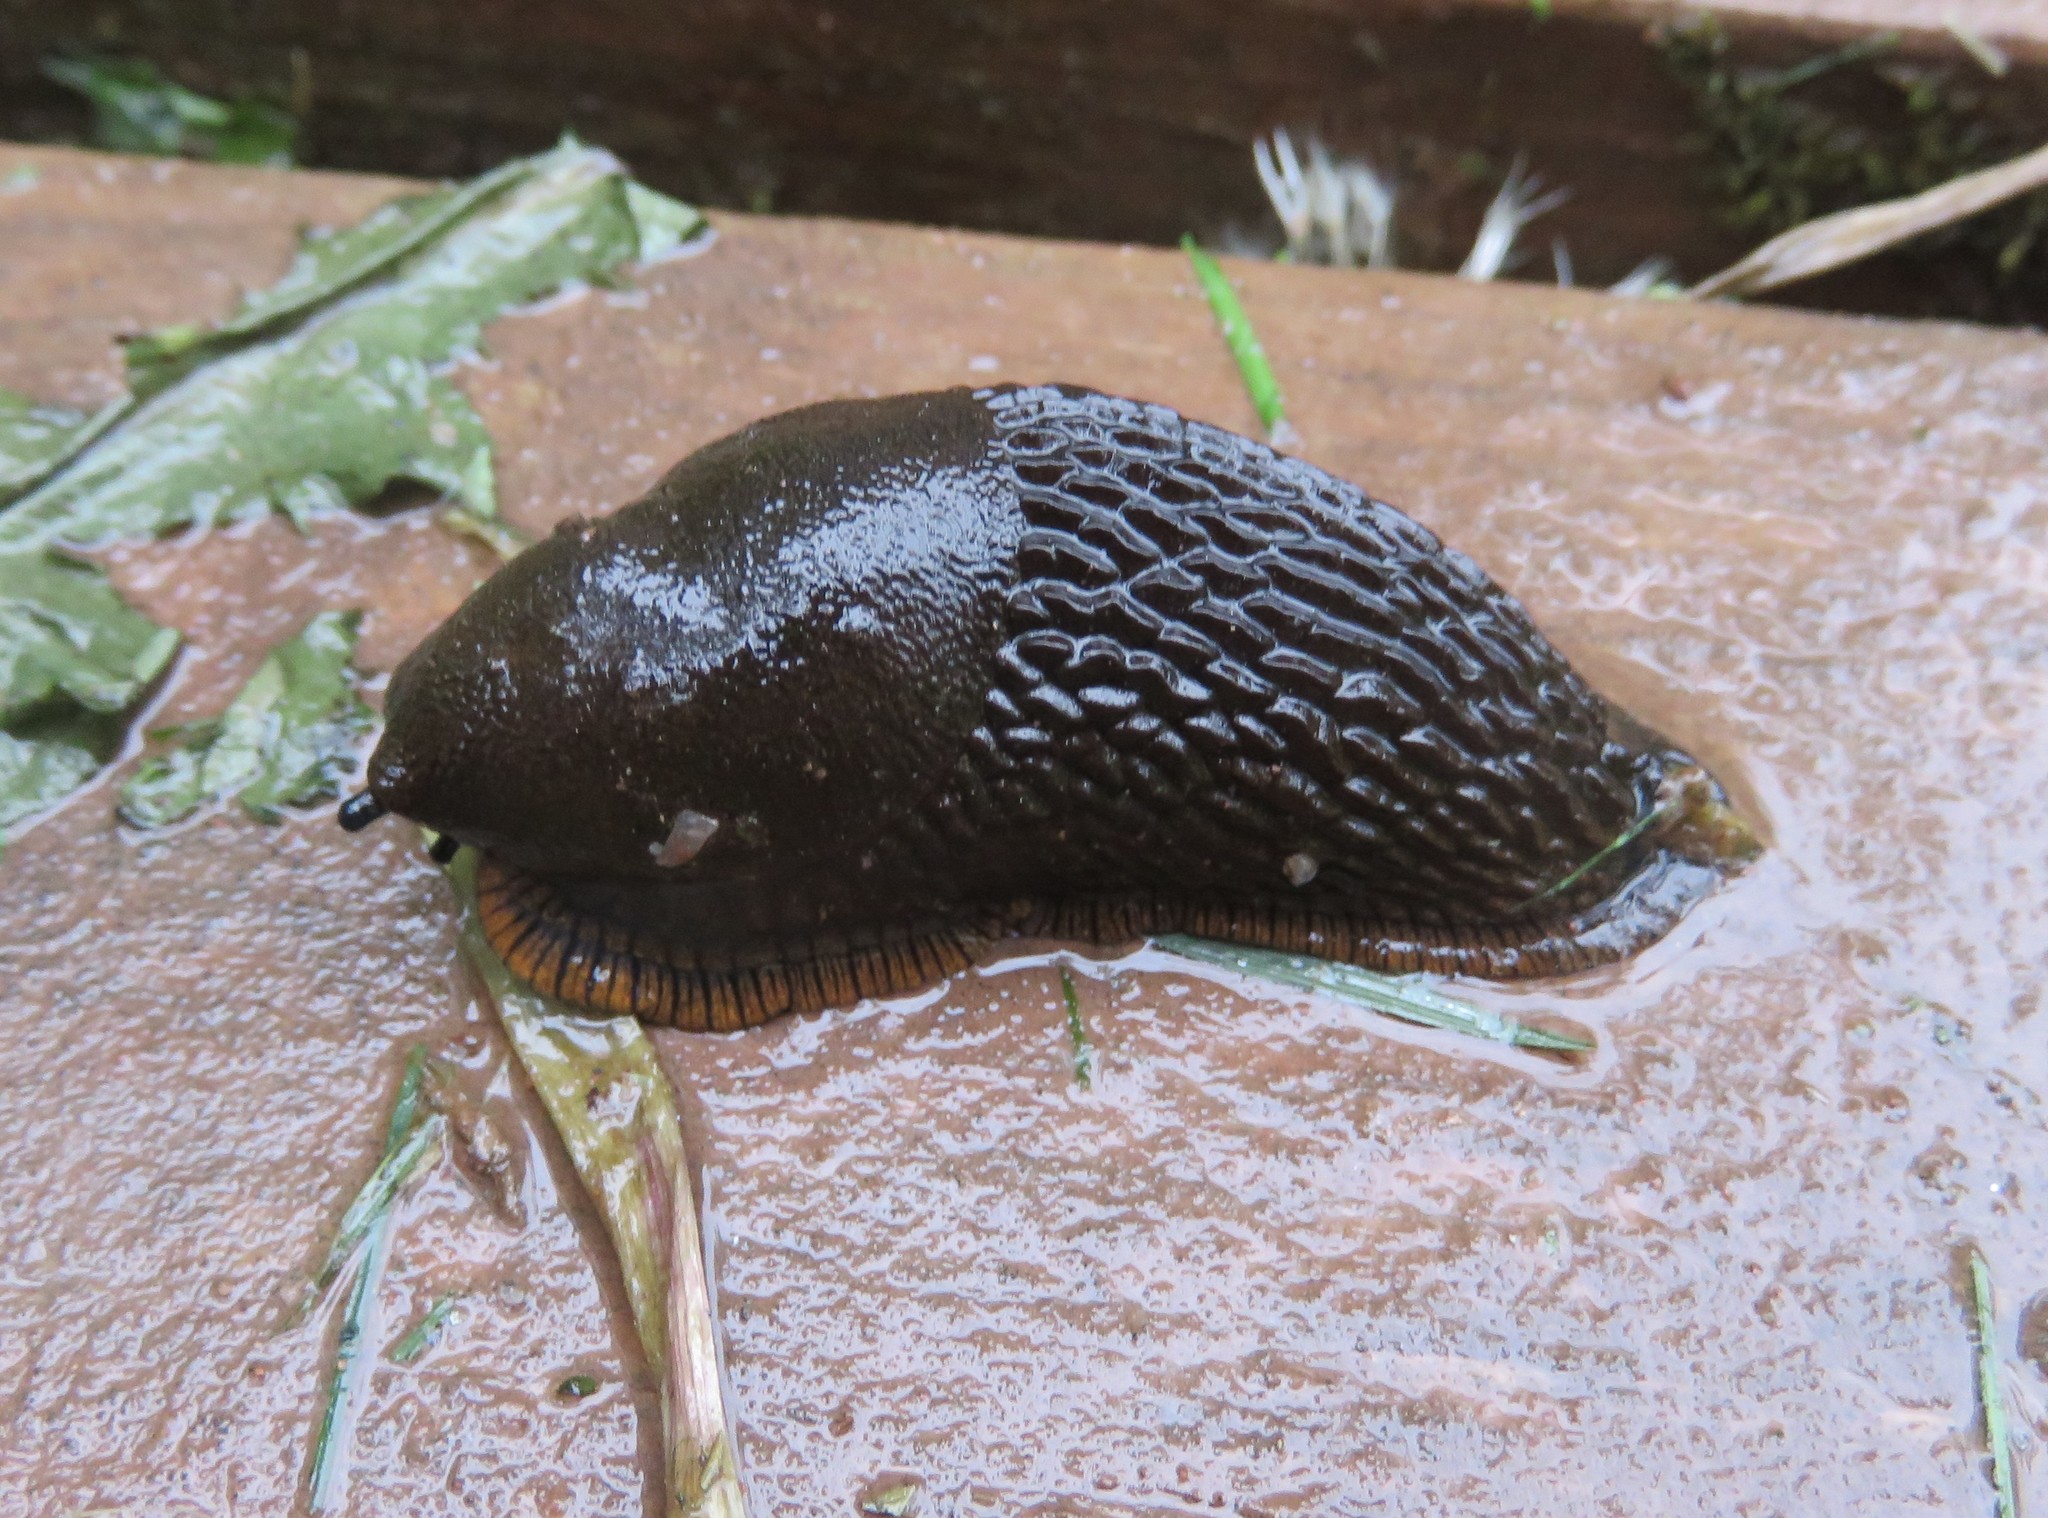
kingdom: Animalia
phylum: Mollusca
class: Gastropoda
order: Stylommatophora
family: Arionidae
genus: Arion
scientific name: Arion rufus
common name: Chocolate arion
